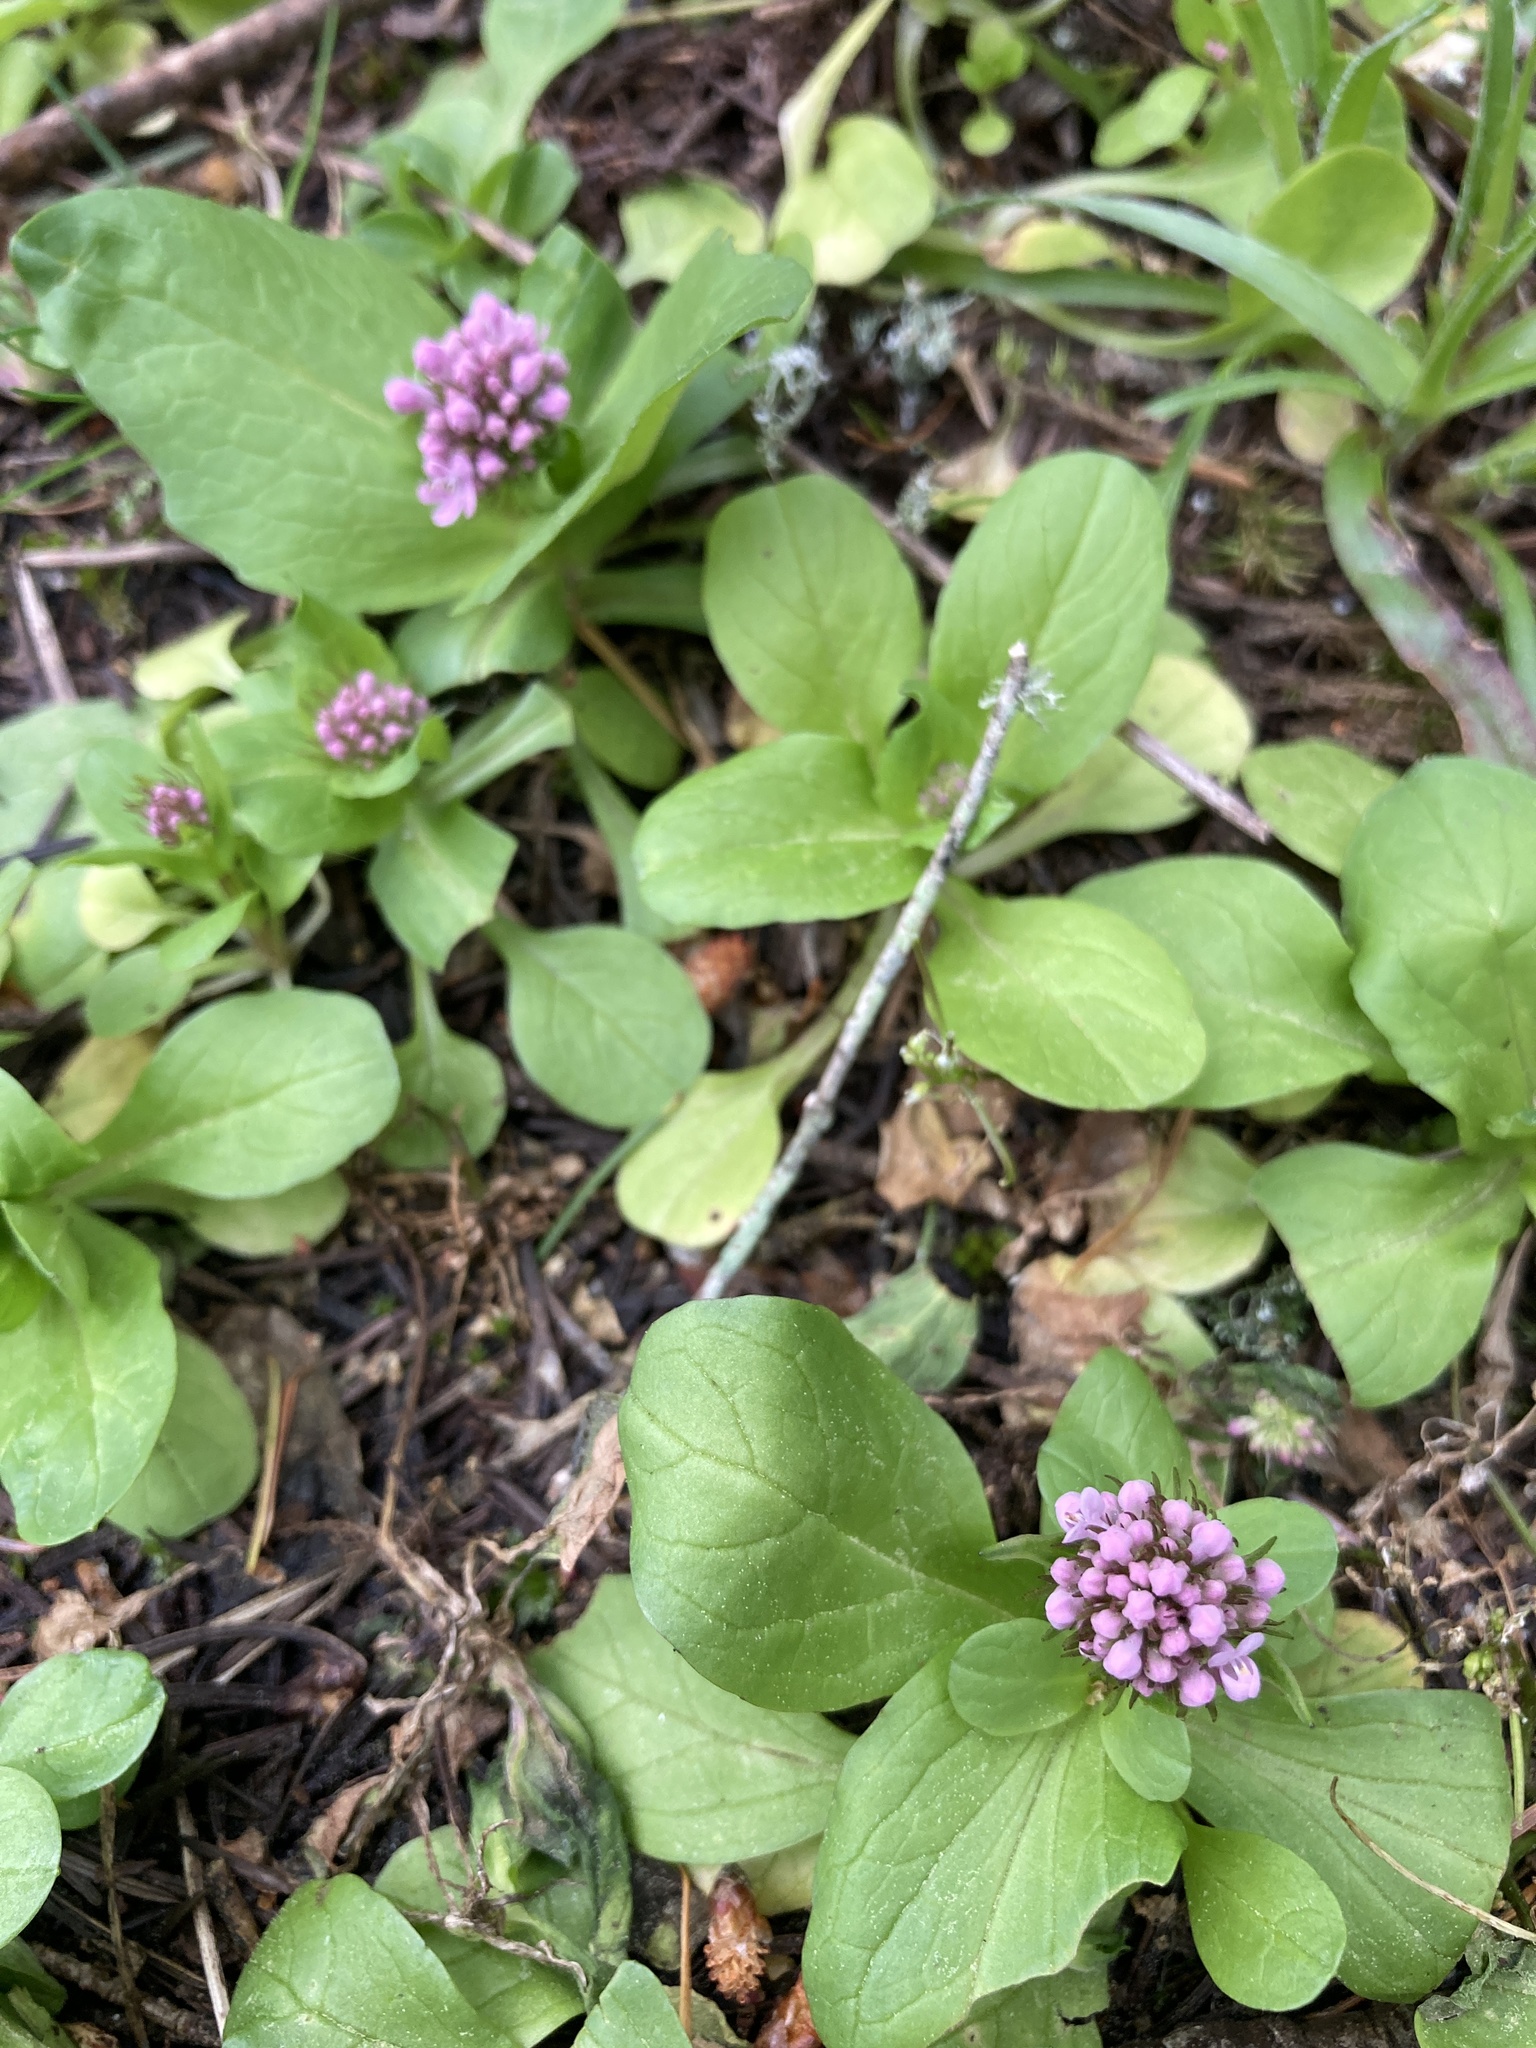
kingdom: Plantae
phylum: Tracheophyta
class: Magnoliopsida
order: Dipsacales
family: Caprifoliaceae
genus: Plectritis
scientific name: Plectritis congesta
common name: Pink plectritis
